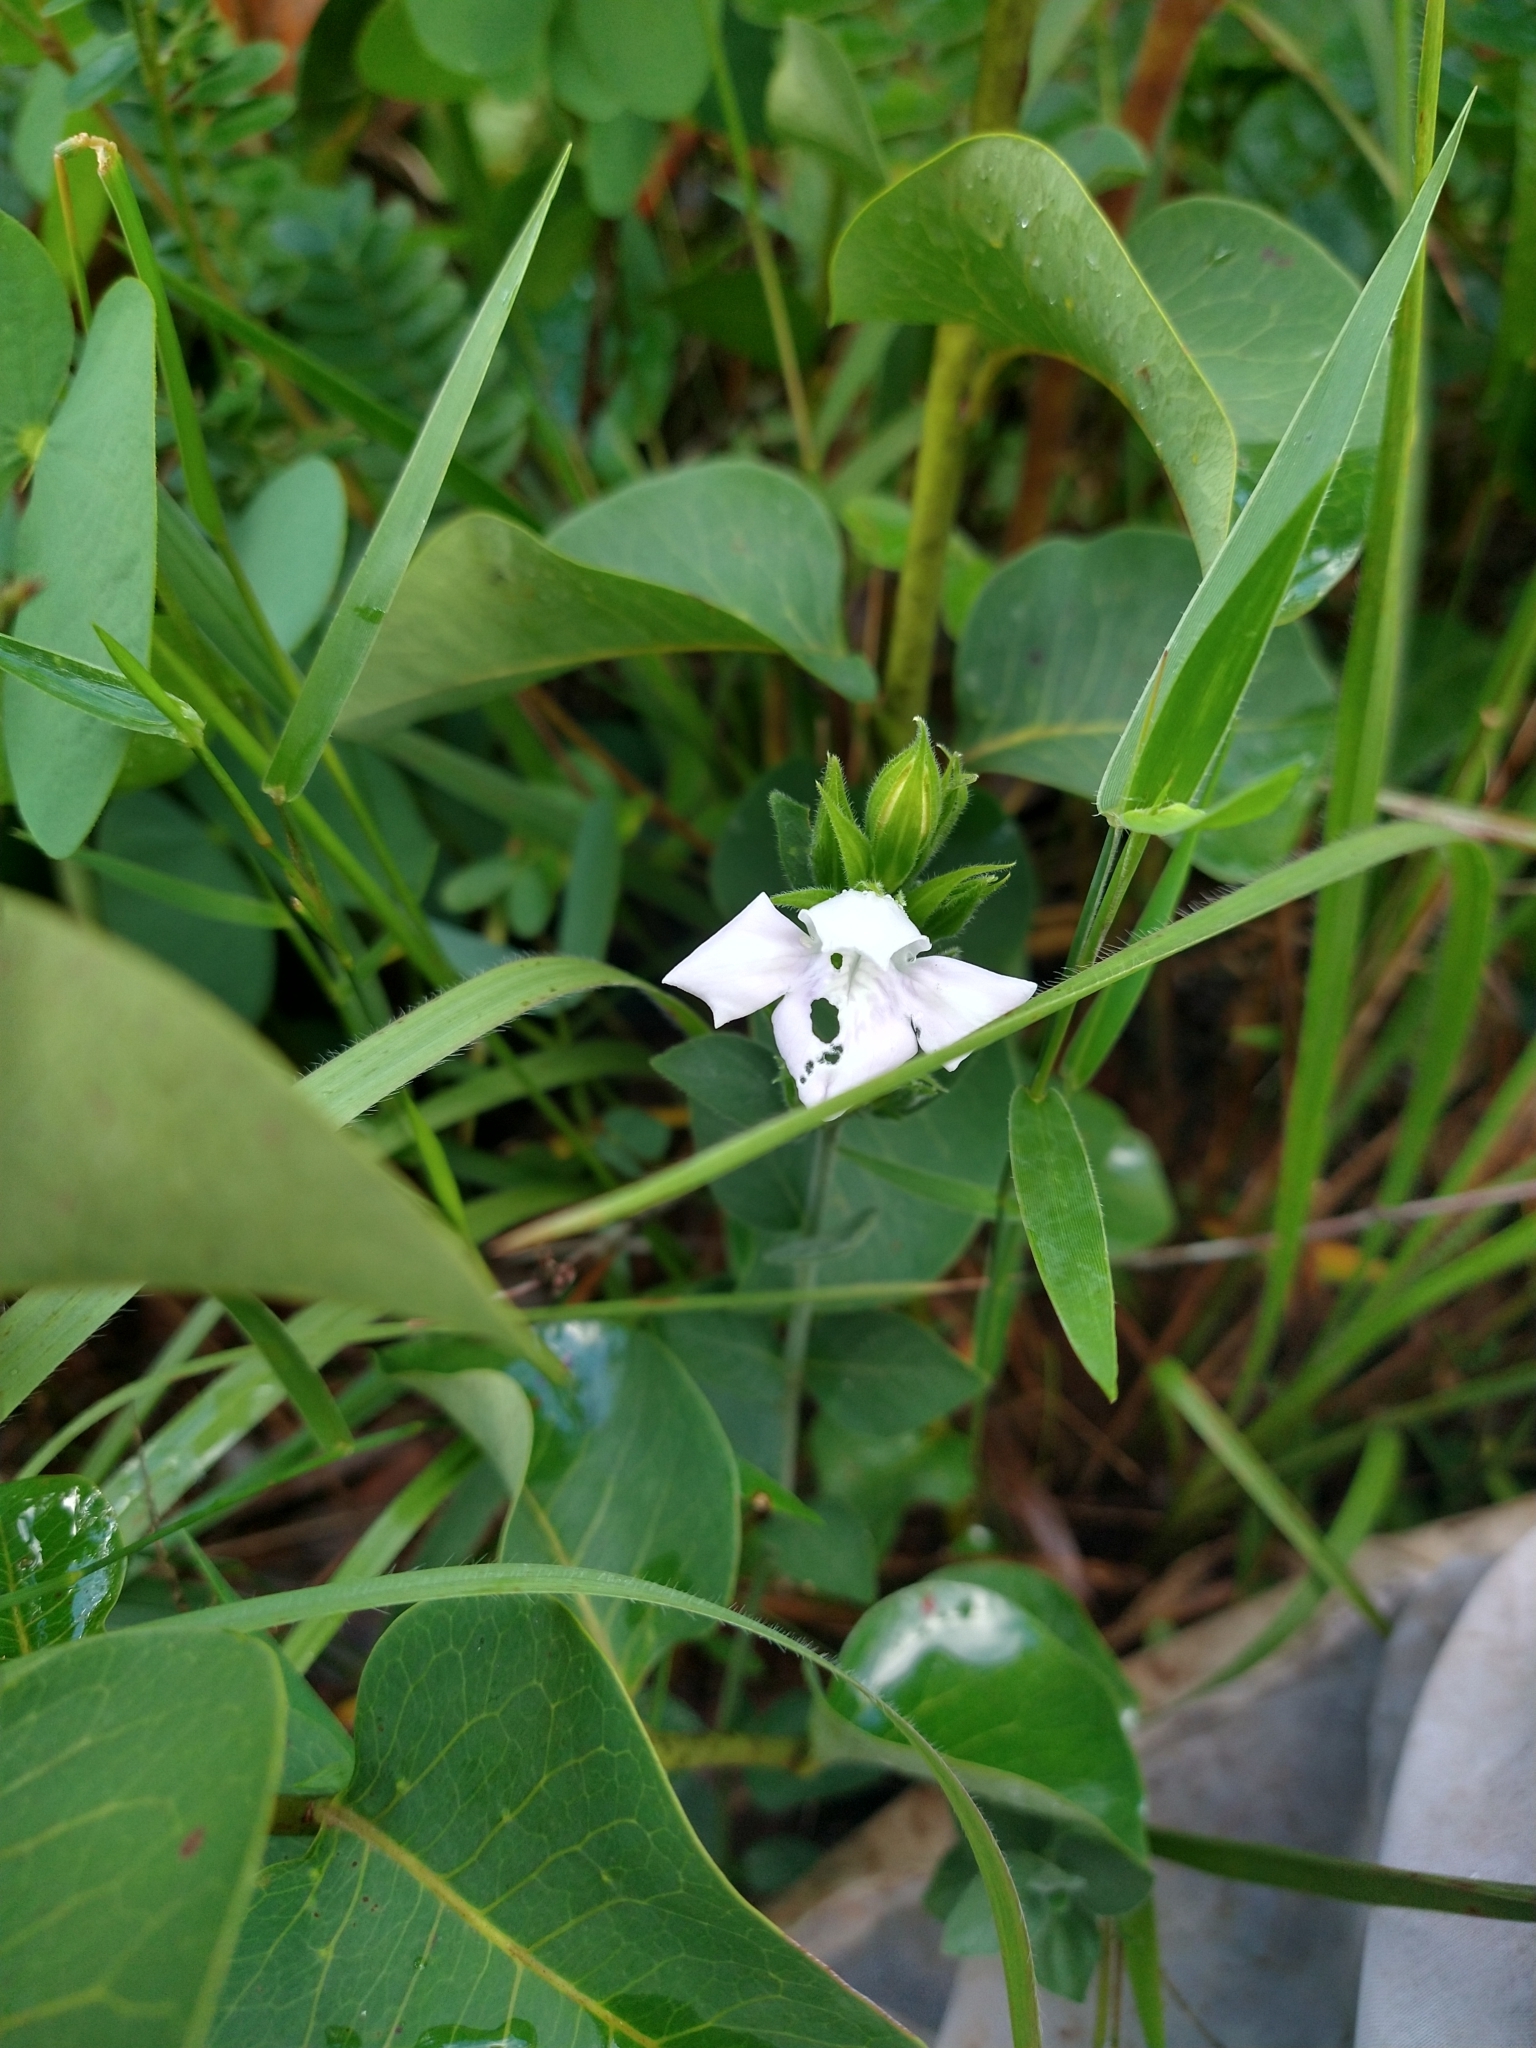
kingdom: Plantae
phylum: Tracheophyta
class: Magnoliopsida
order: Lamiales
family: Acanthaceae
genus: Justicia
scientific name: Justicia oncodes
